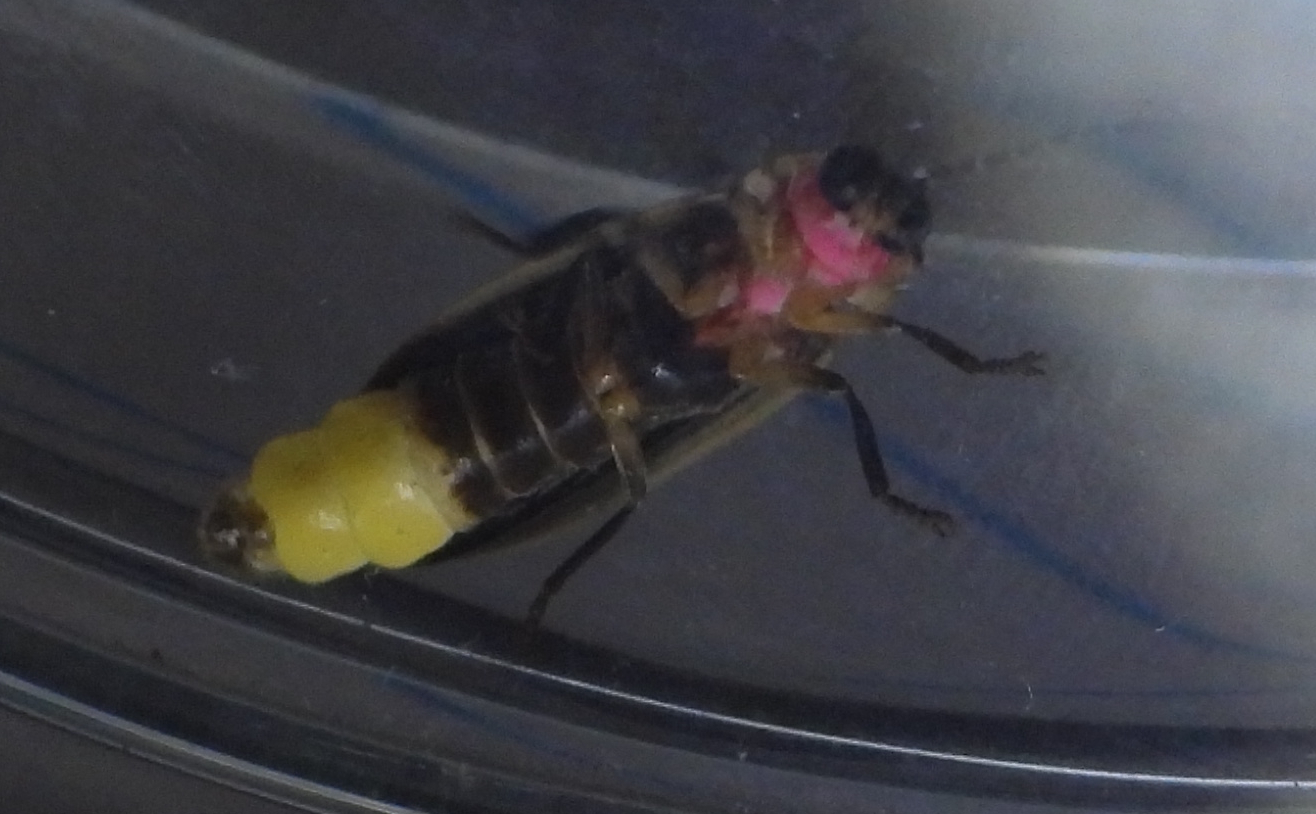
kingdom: Animalia
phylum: Arthropoda
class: Insecta
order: Coleoptera
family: Lampyridae
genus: Photinus
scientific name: Photinus pyralis
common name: Big dipper firefly
